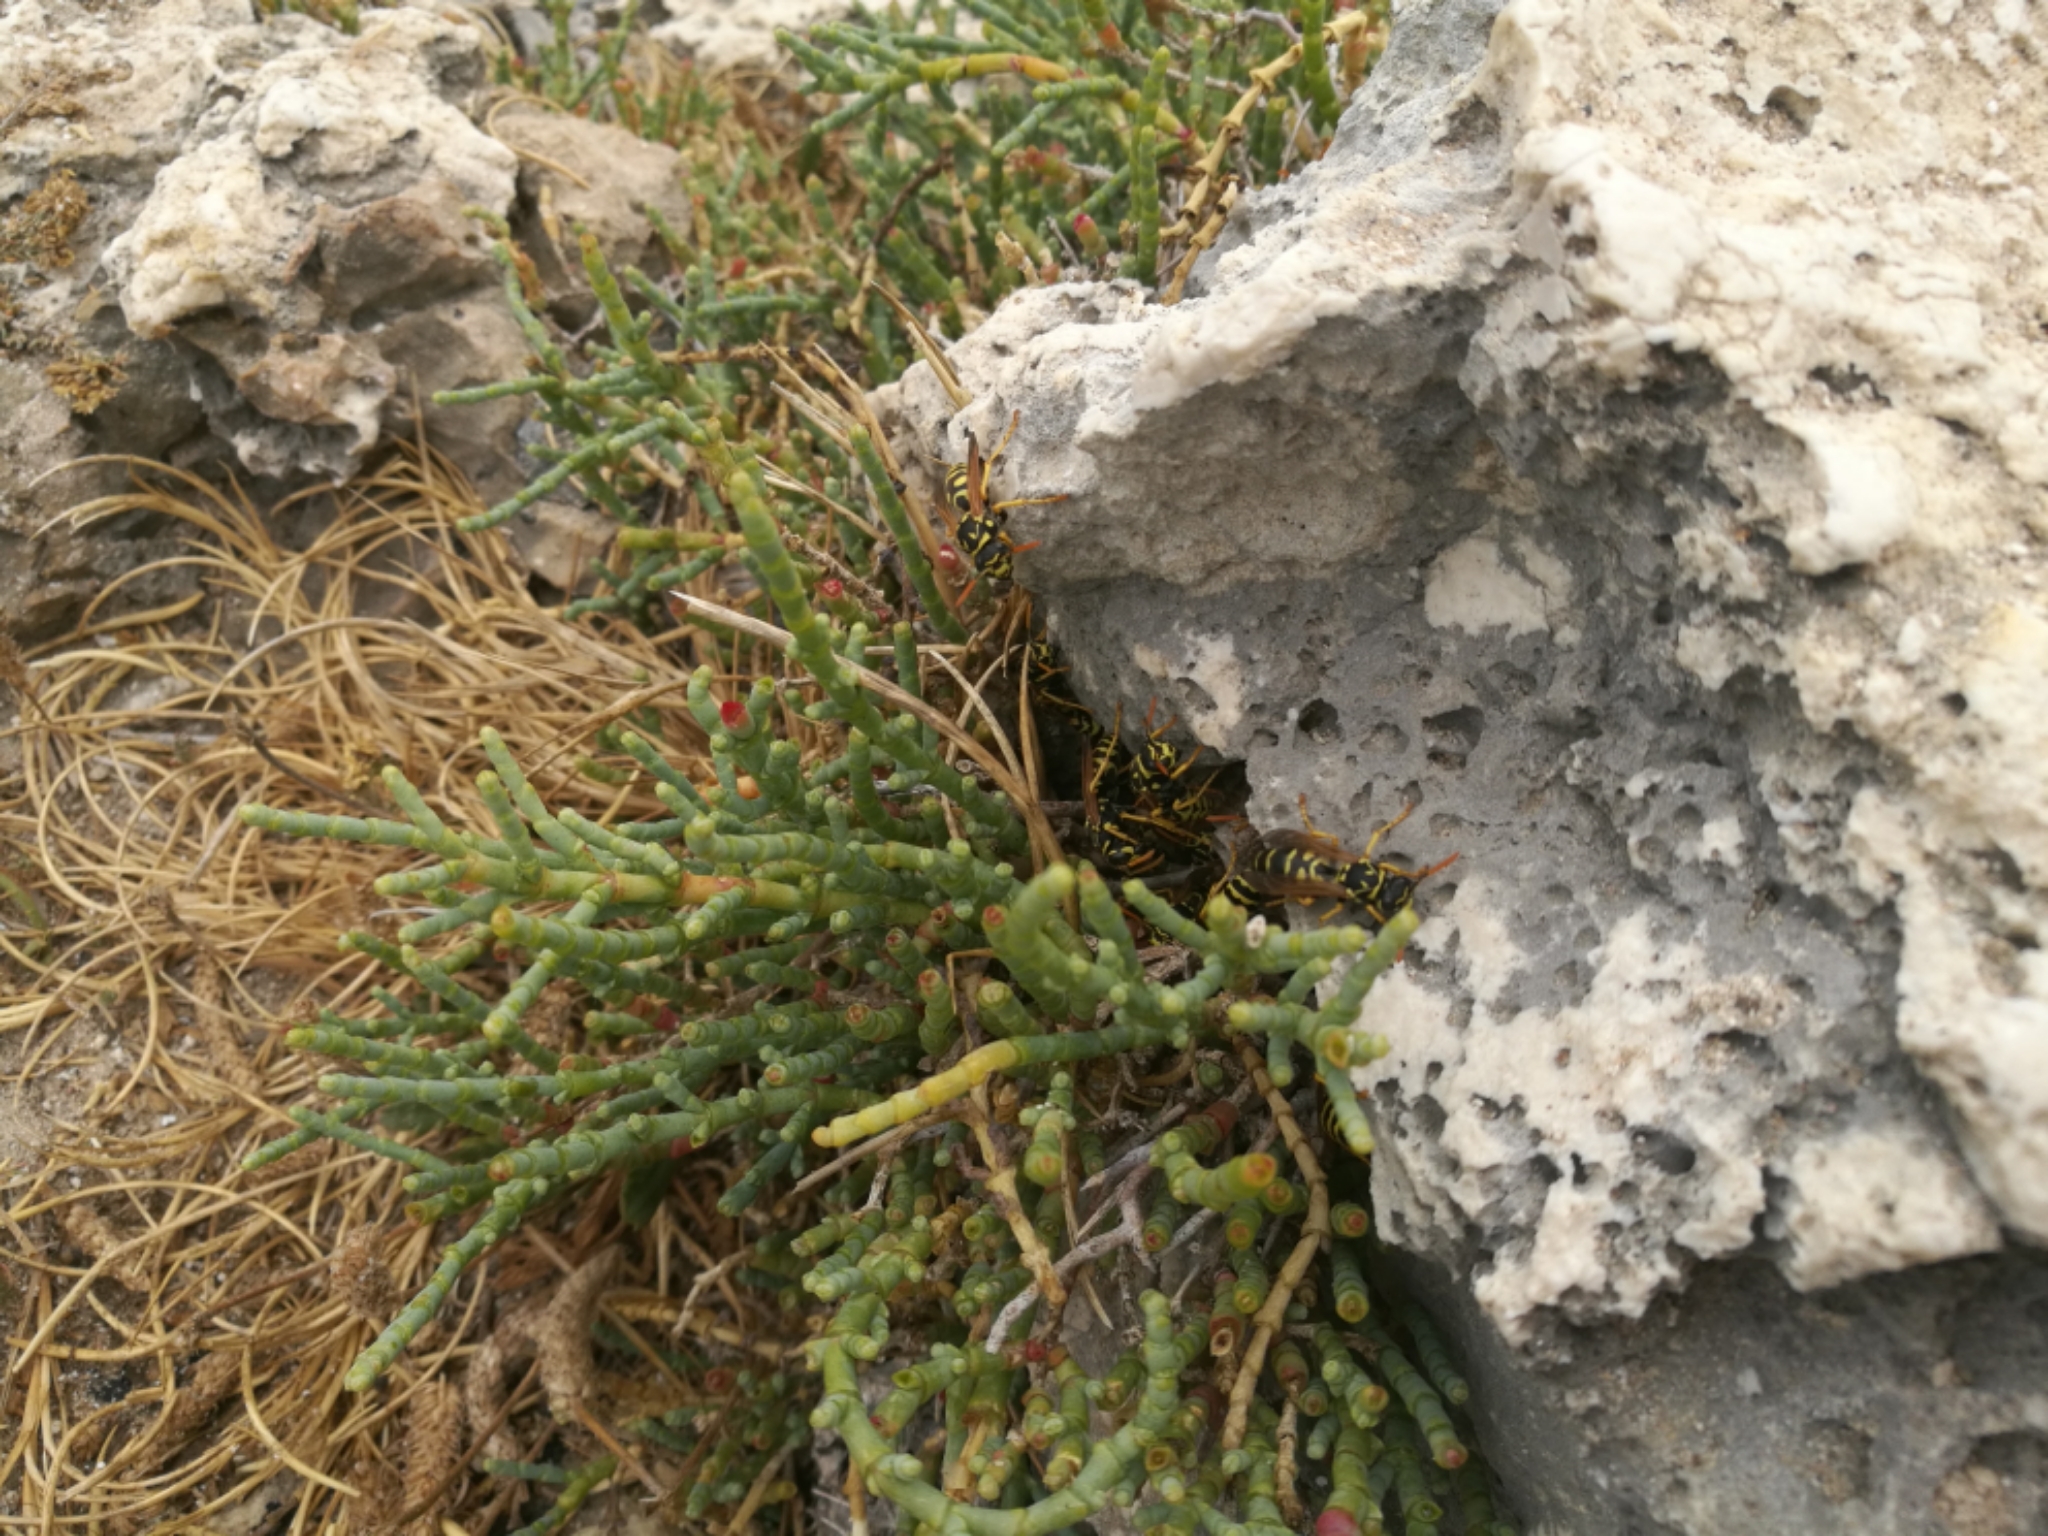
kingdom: Animalia
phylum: Arthropoda
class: Insecta
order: Hymenoptera
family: Eumenidae
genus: Polistes
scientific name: Polistes dominula
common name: Paper wasp
